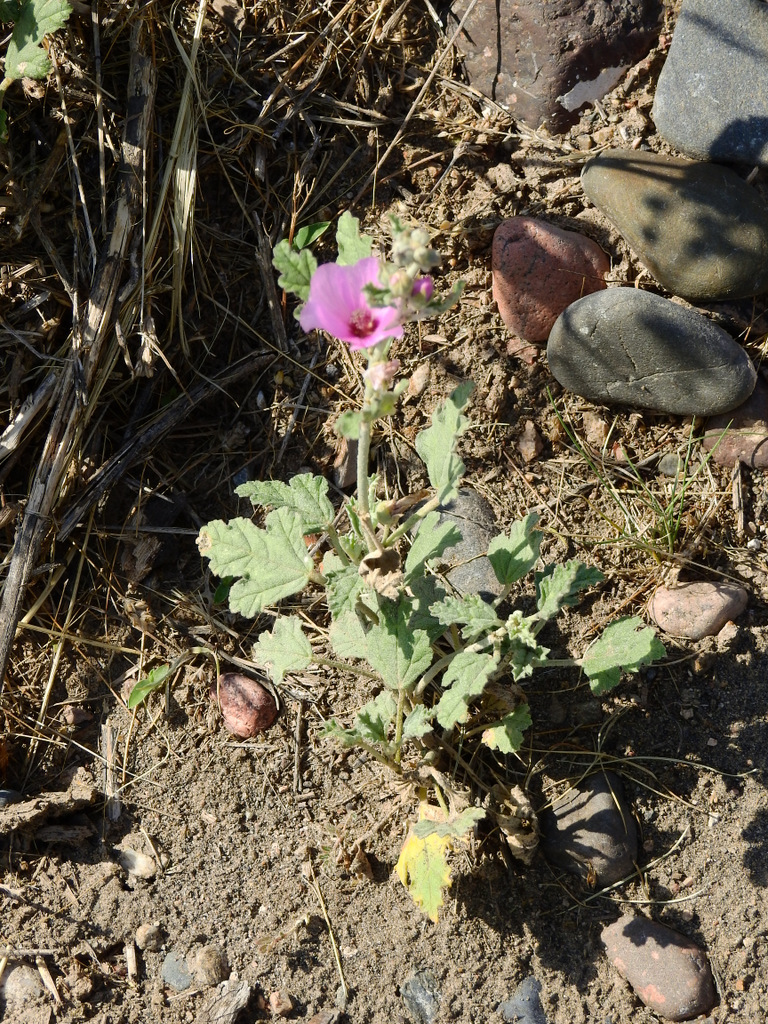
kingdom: Plantae
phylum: Tracheophyta
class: Magnoliopsida
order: Malvales
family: Malvaceae
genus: Sphaeralcea
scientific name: Sphaeralcea mendocina
